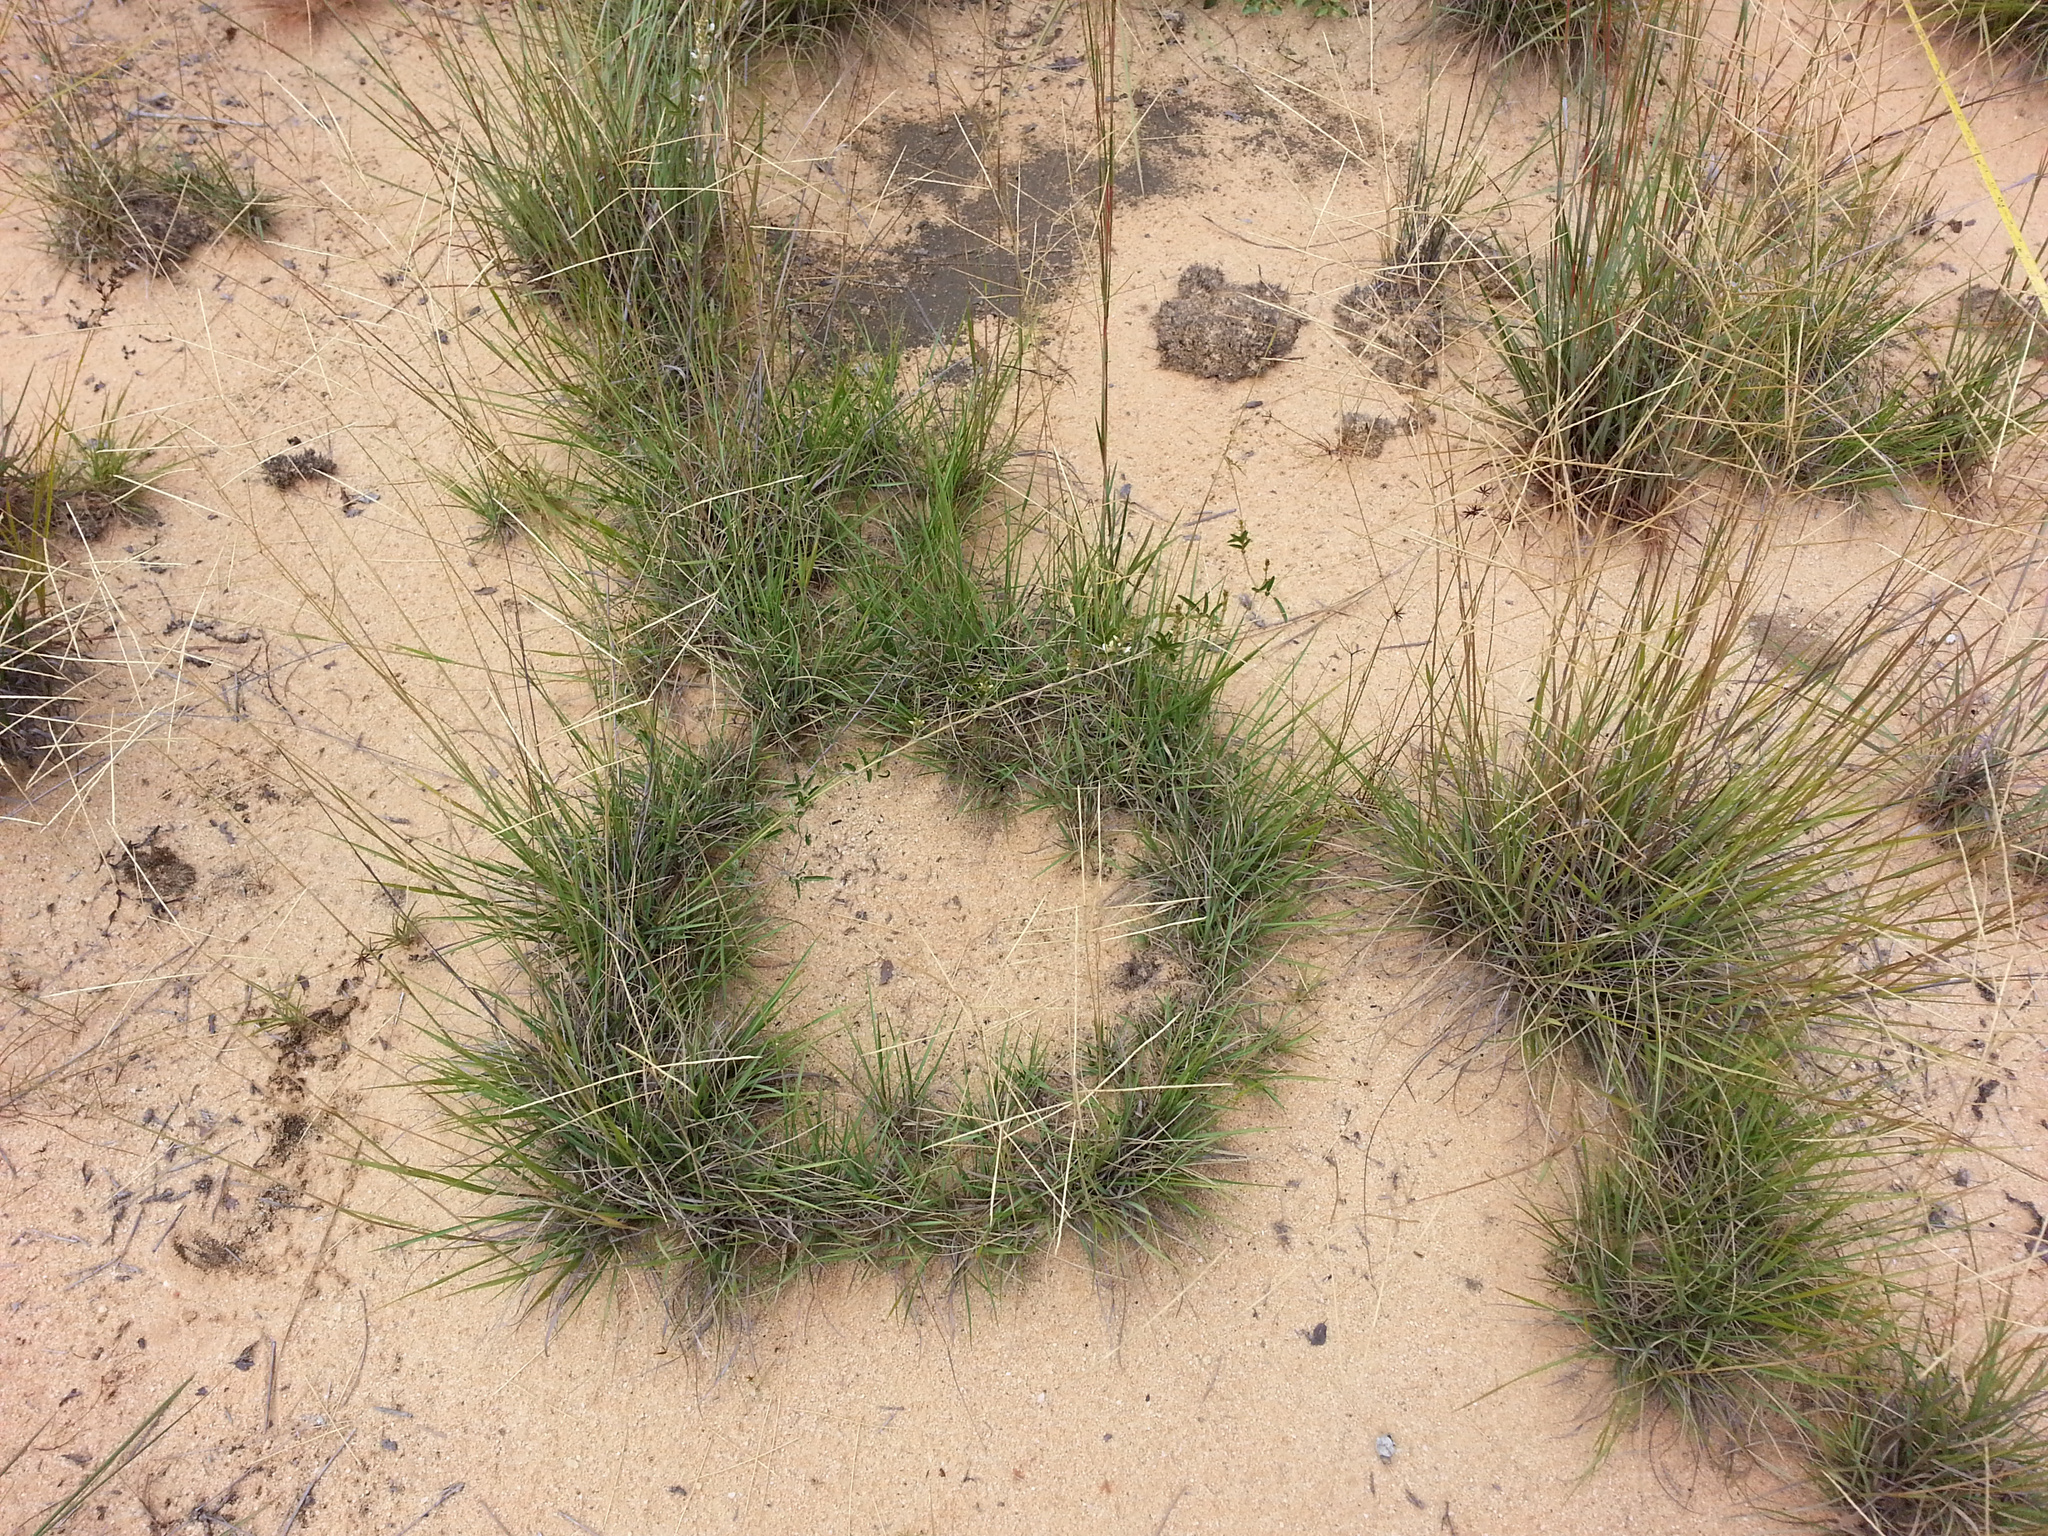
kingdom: Plantae
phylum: Tracheophyta
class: Liliopsida
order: Poales
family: Poaceae
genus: Craspedorhachis
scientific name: Craspedorhachis africana
